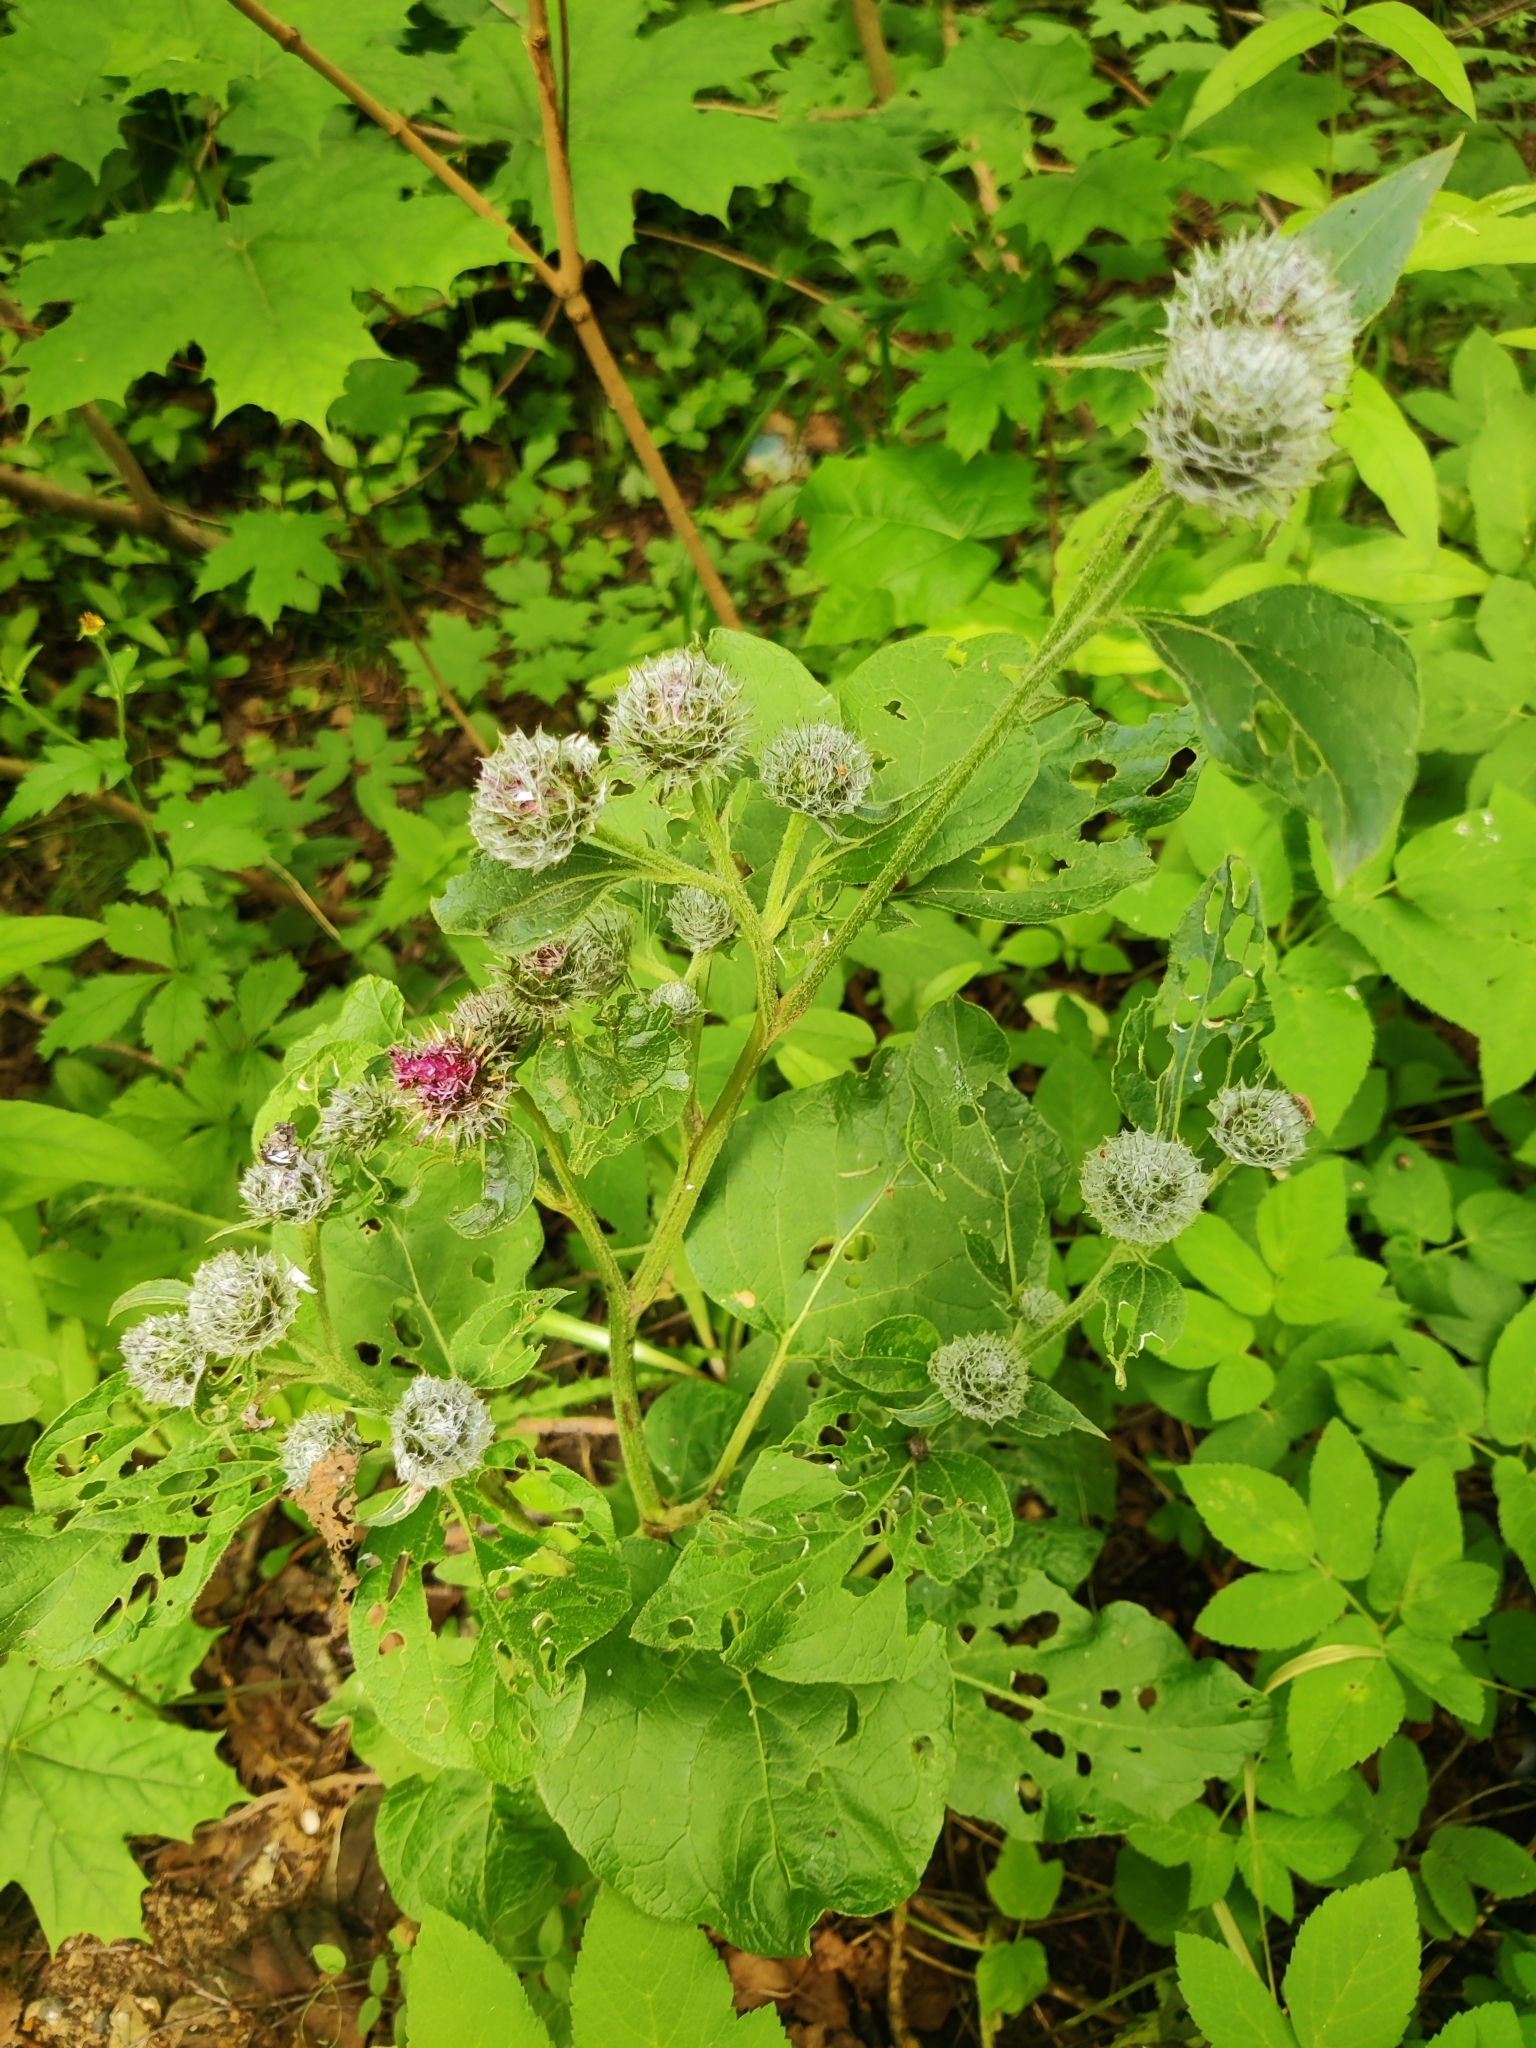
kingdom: Plantae
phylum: Tracheophyta
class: Magnoliopsida
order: Asterales
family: Asteraceae
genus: Arctium
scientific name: Arctium tomentosum
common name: Woolly burdock
